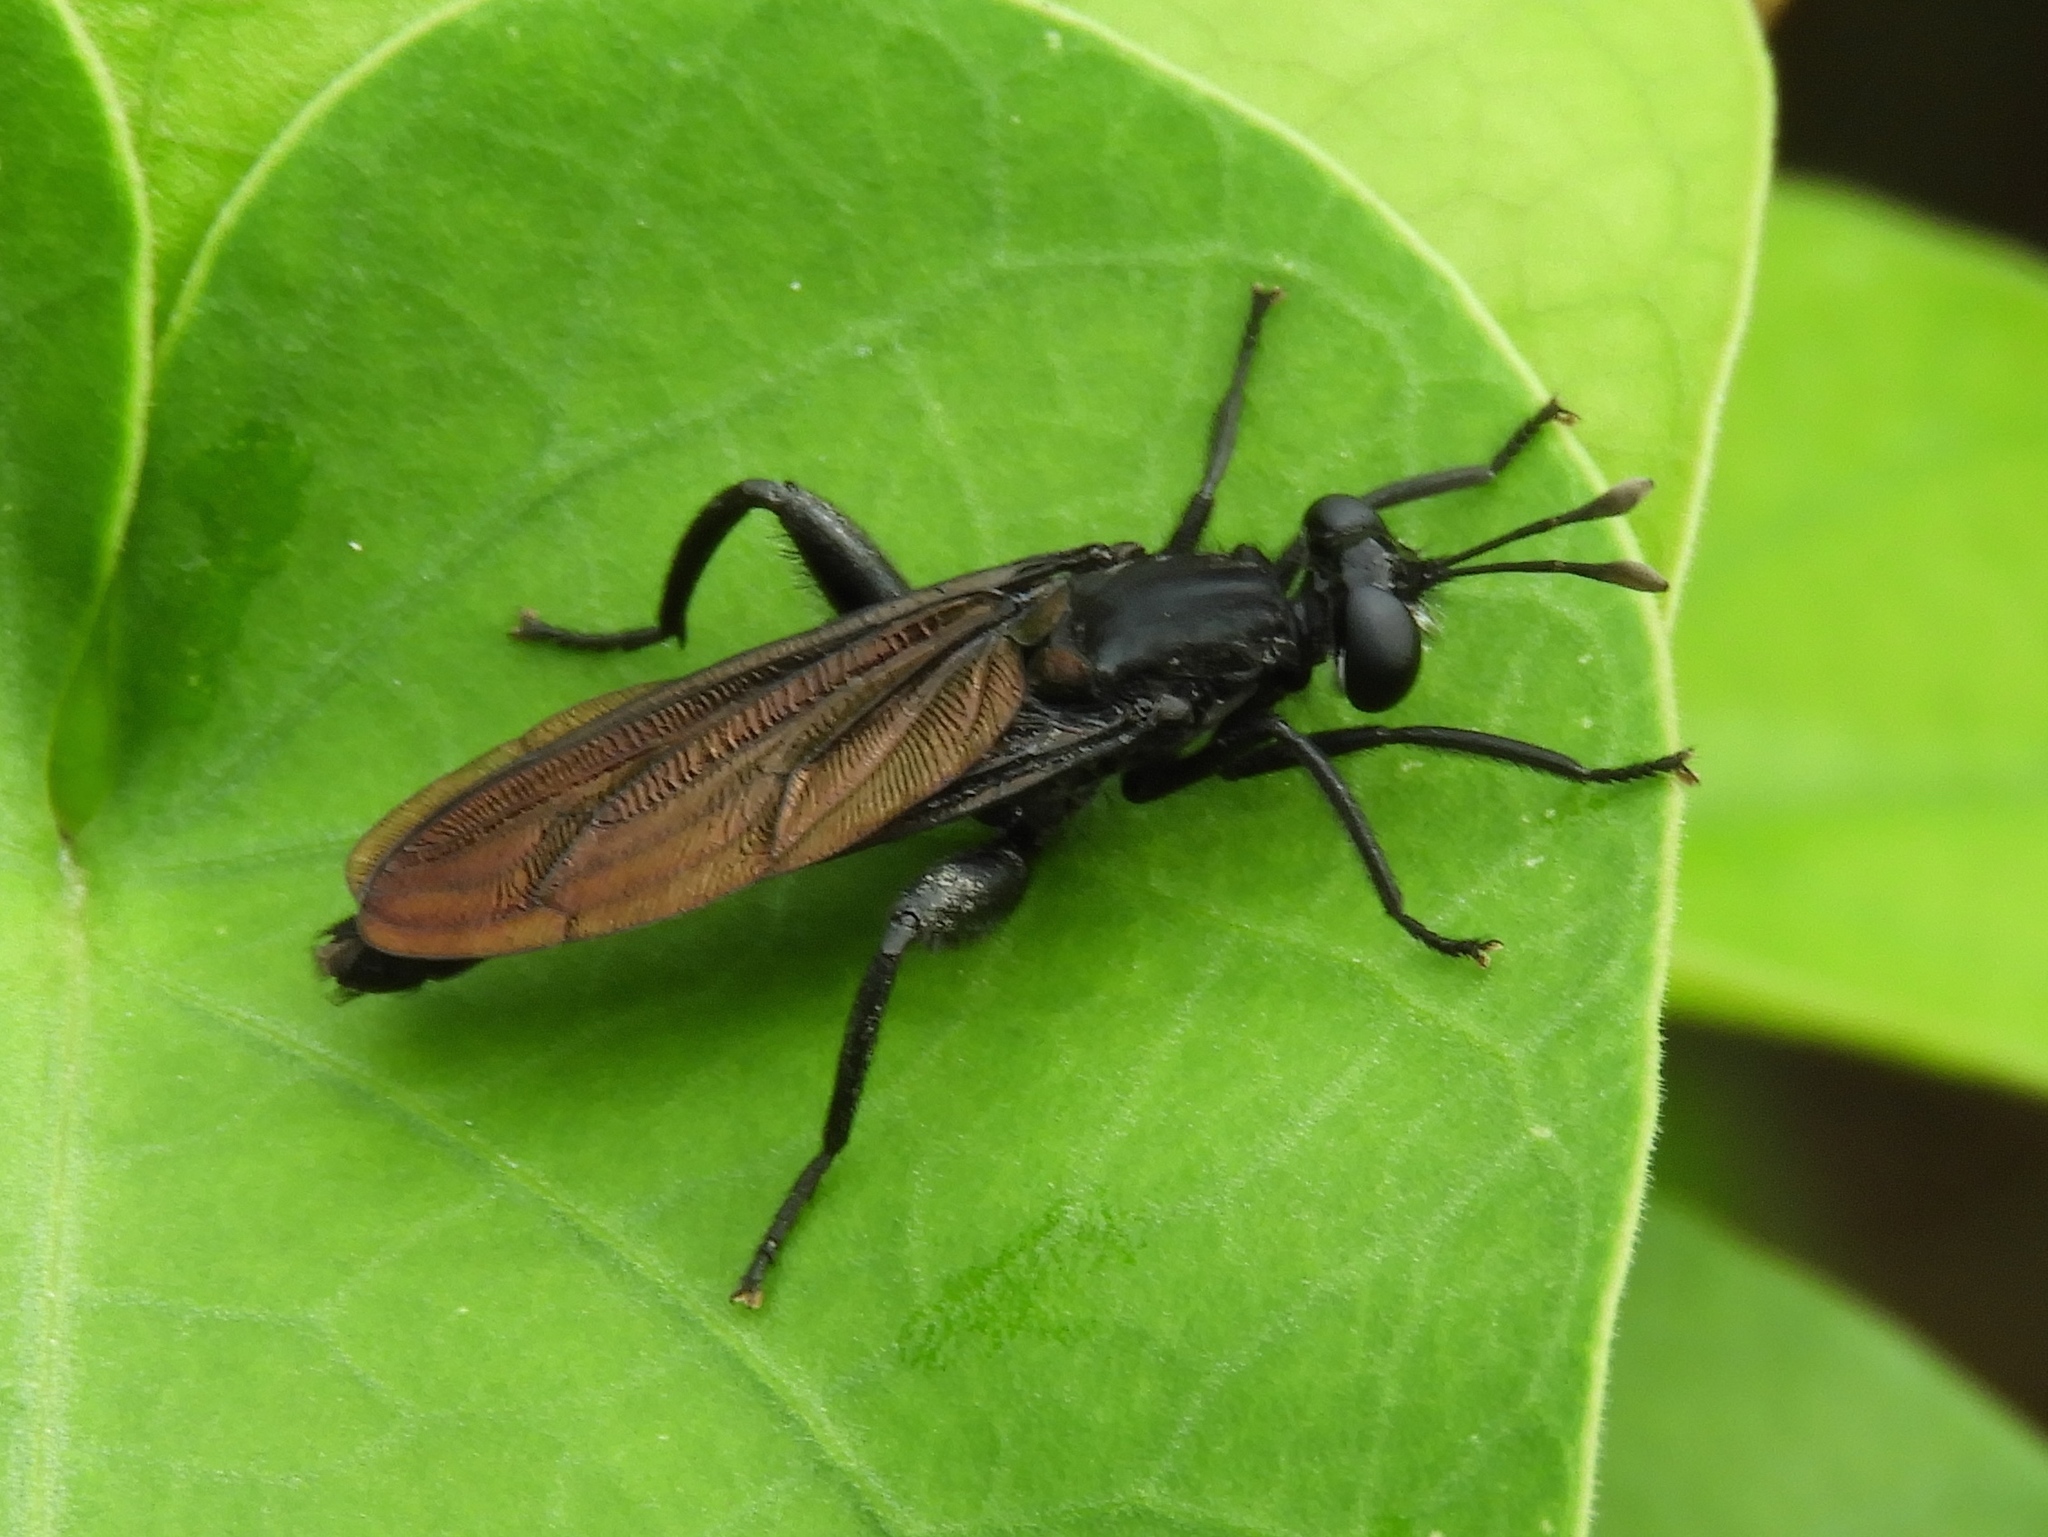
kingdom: Animalia
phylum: Arthropoda
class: Insecta
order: Diptera
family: Mydidae
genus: Messiasia
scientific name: Messiasia
